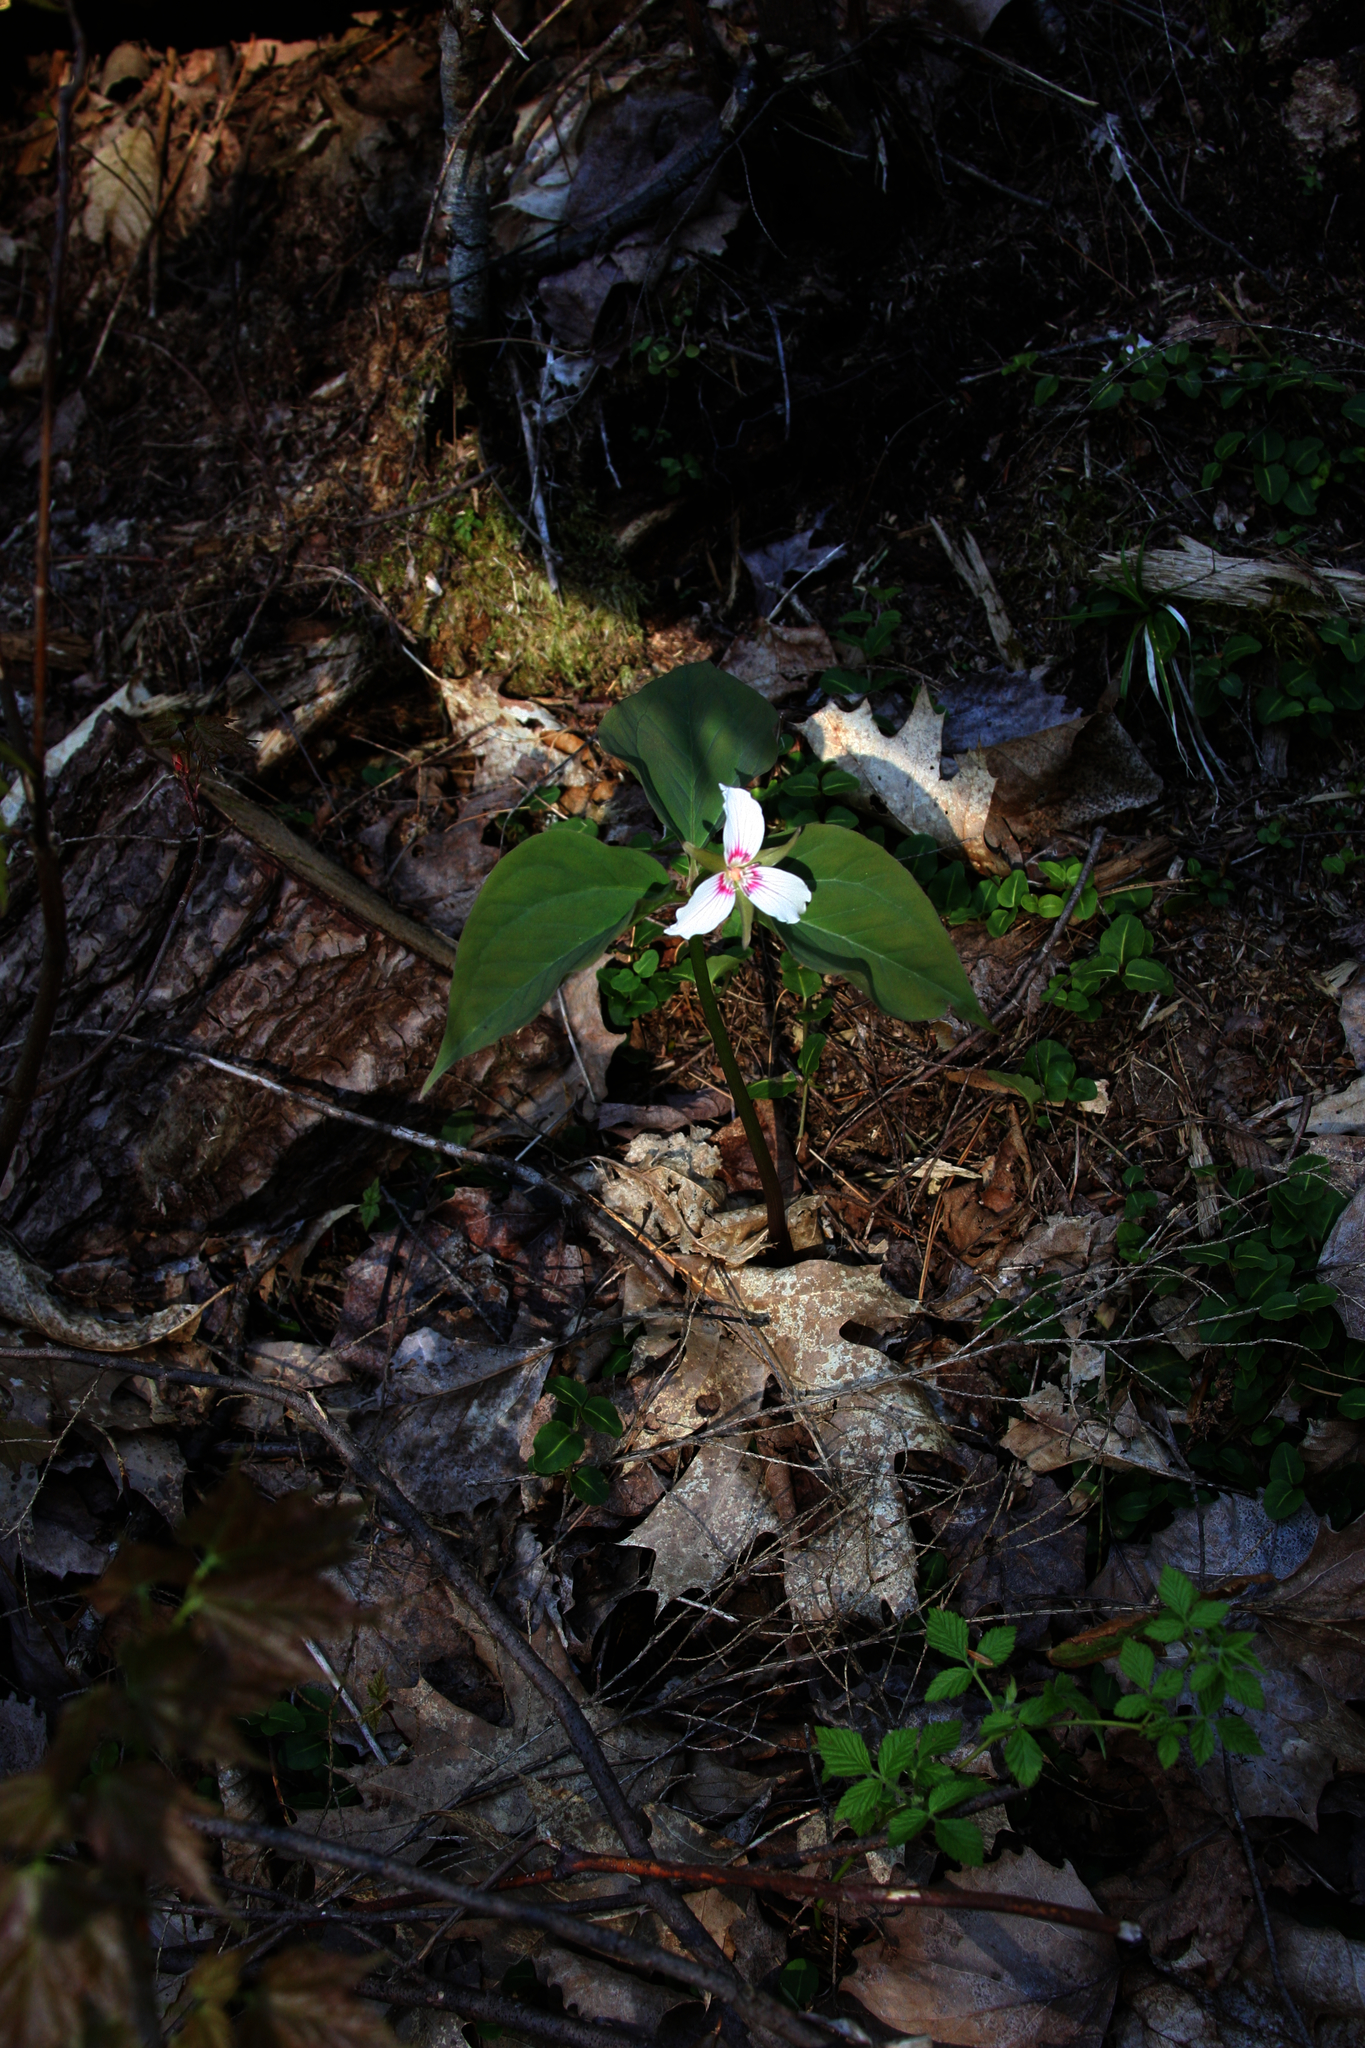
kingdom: Plantae
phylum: Tracheophyta
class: Liliopsida
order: Liliales
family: Melanthiaceae
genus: Trillium
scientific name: Trillium undulatum
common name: Paint trillium
